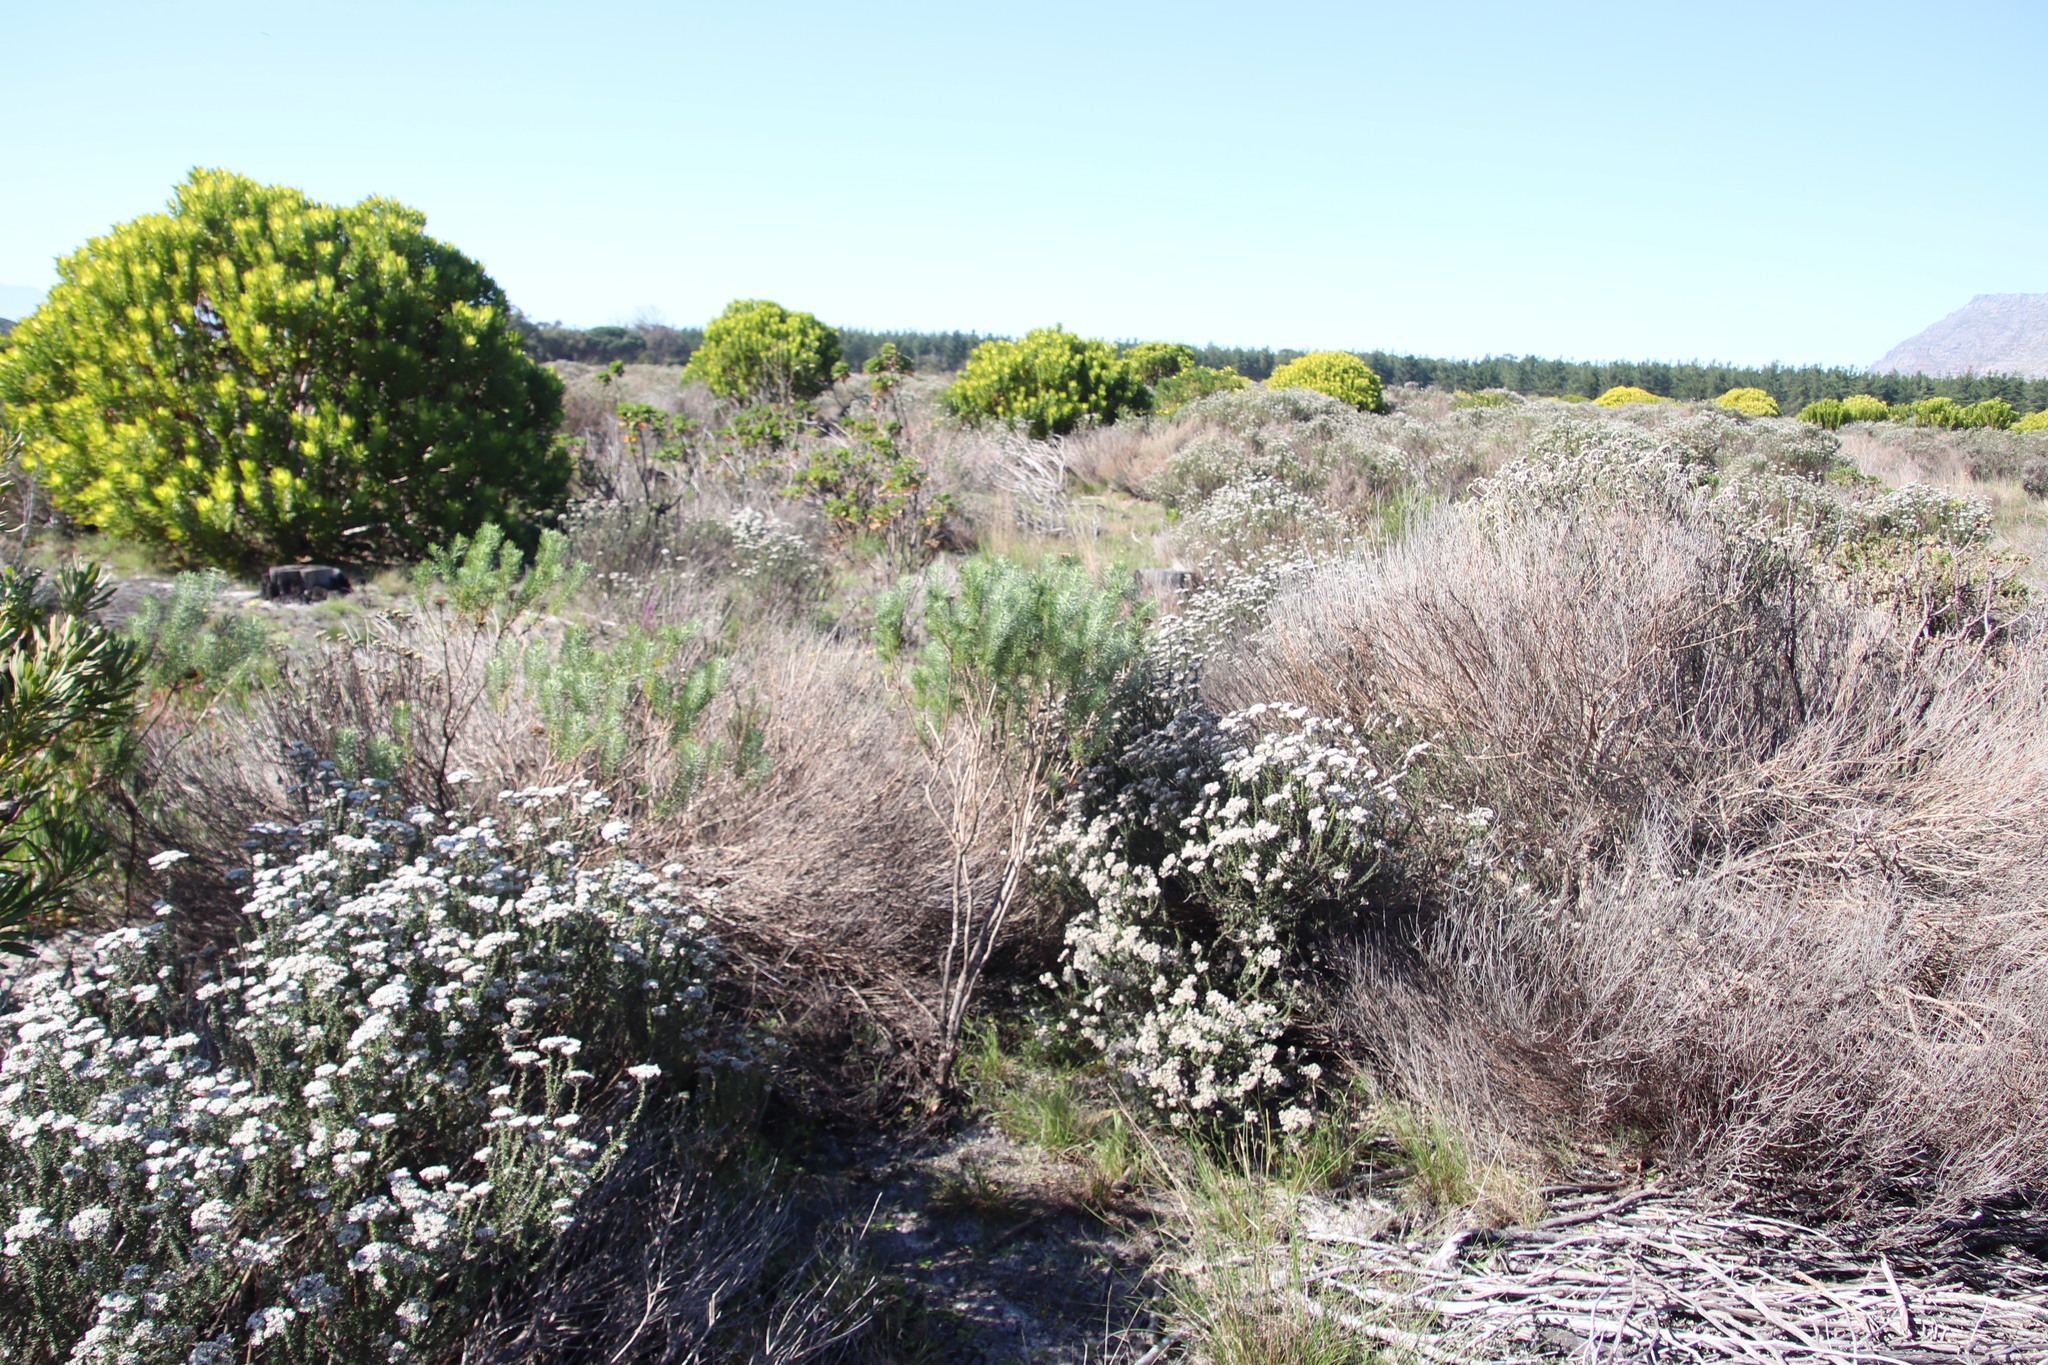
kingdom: Plantae
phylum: Tracheophyta
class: Magnoliopsida
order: Asterales
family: Asteraceae
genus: Athanasia
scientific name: Athanasia crithmifolia
